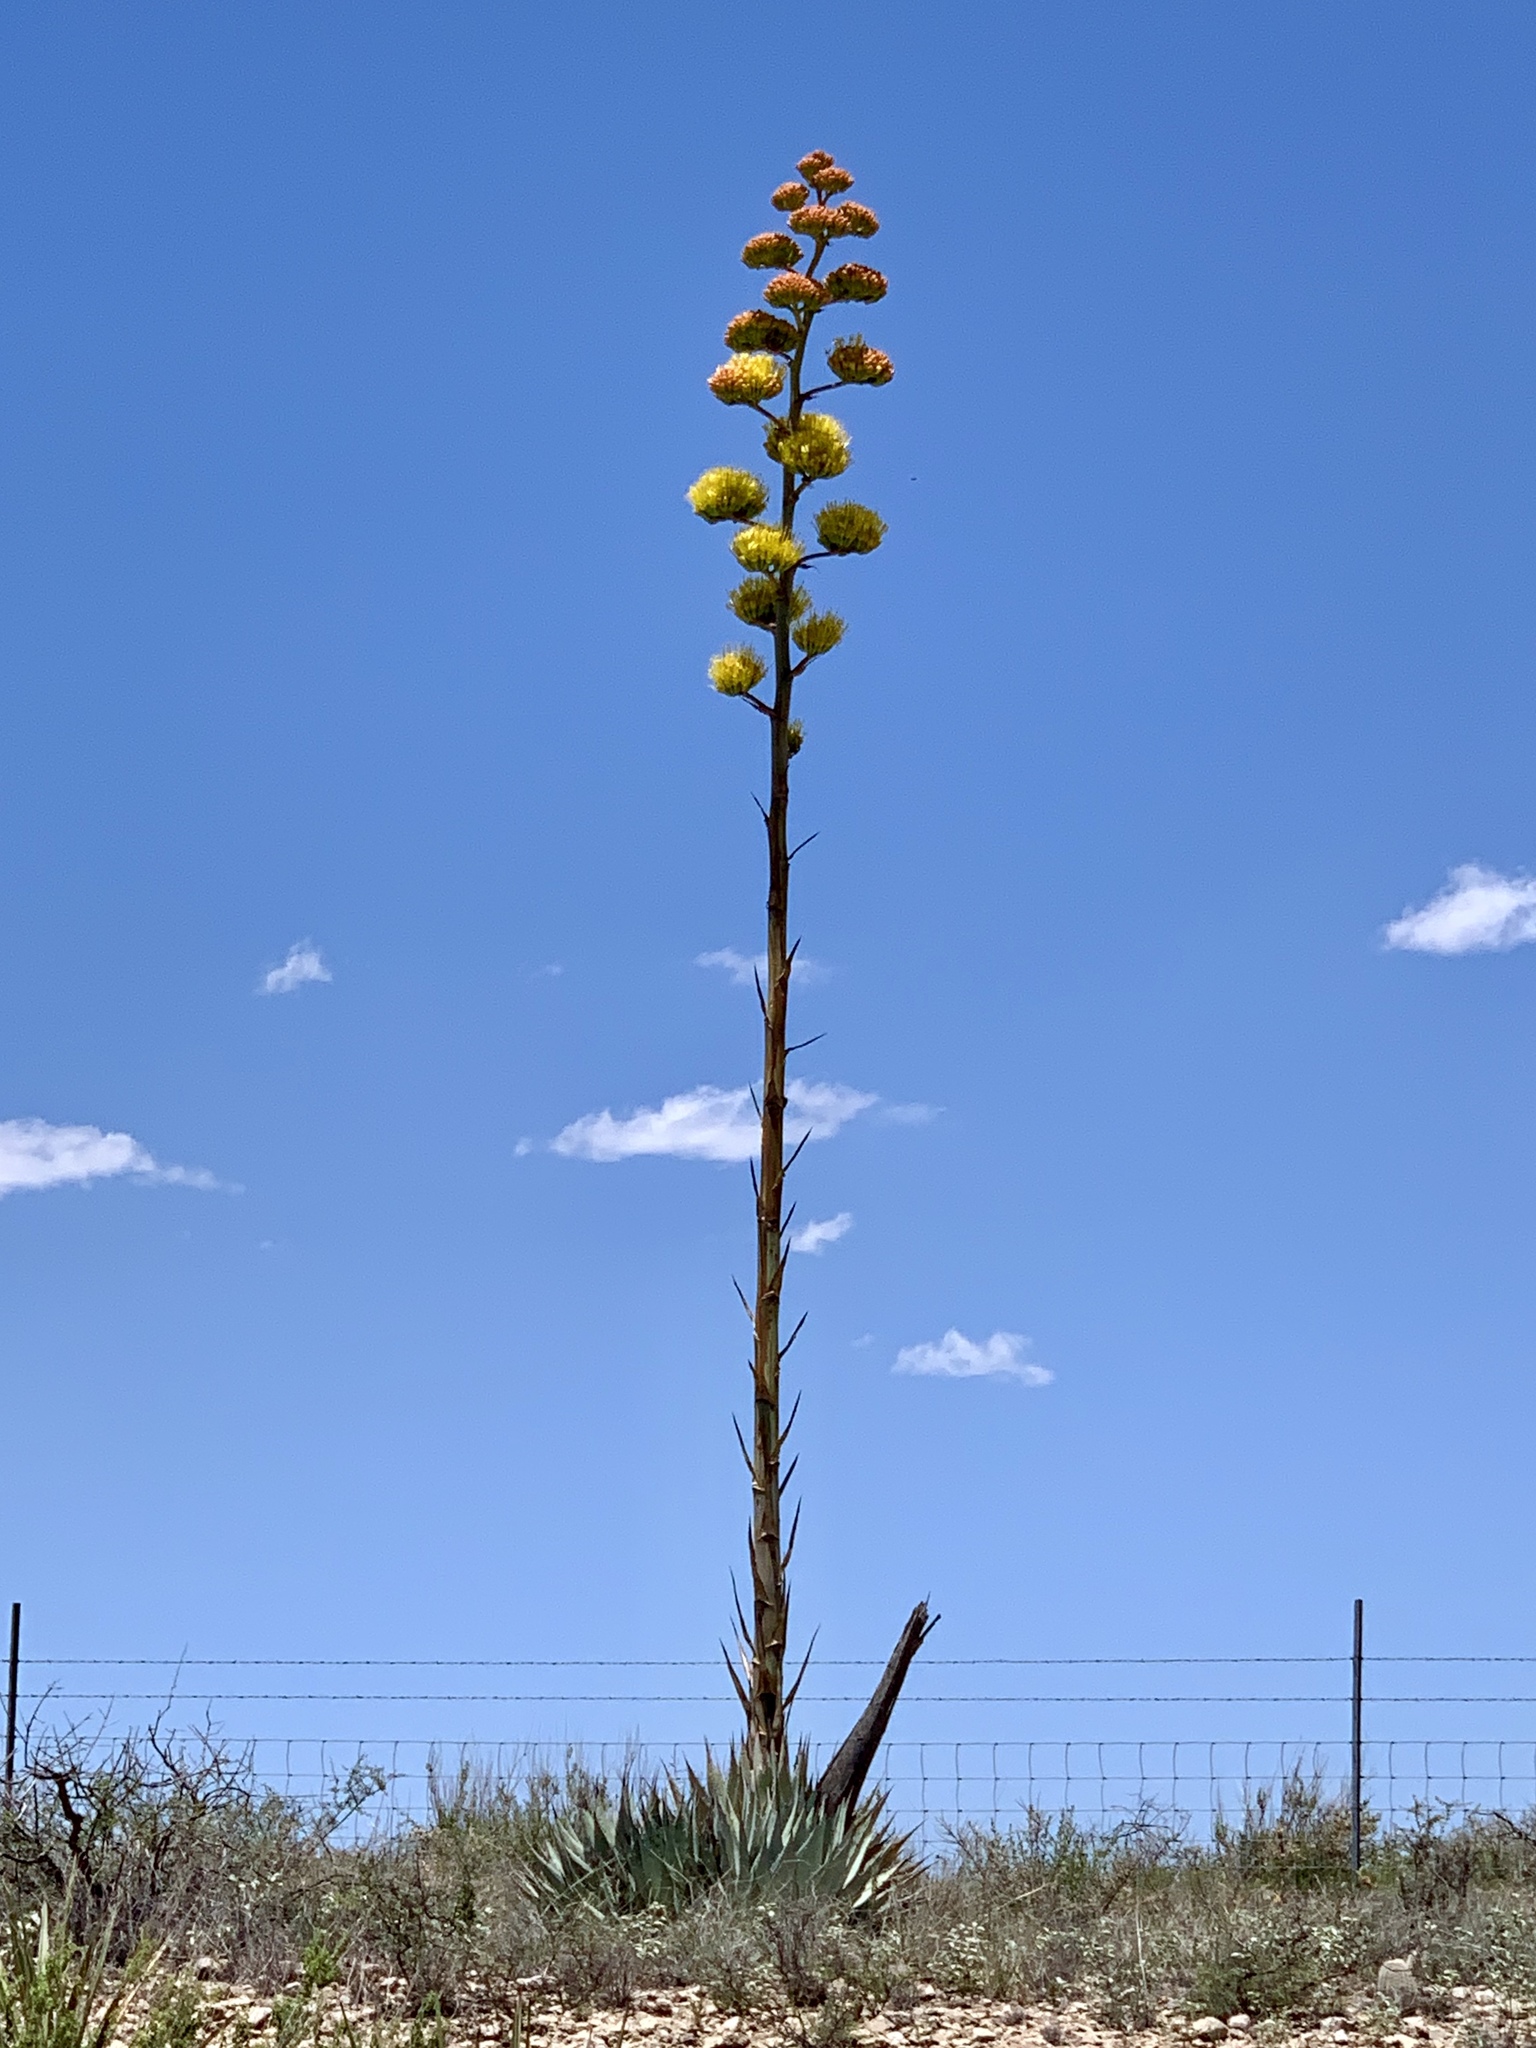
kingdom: Plantae
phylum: Tracheophyta
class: Liliopsida
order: Asparagales
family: Asparagaceae
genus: Agave
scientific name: Agave parryi
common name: Parry's agave
